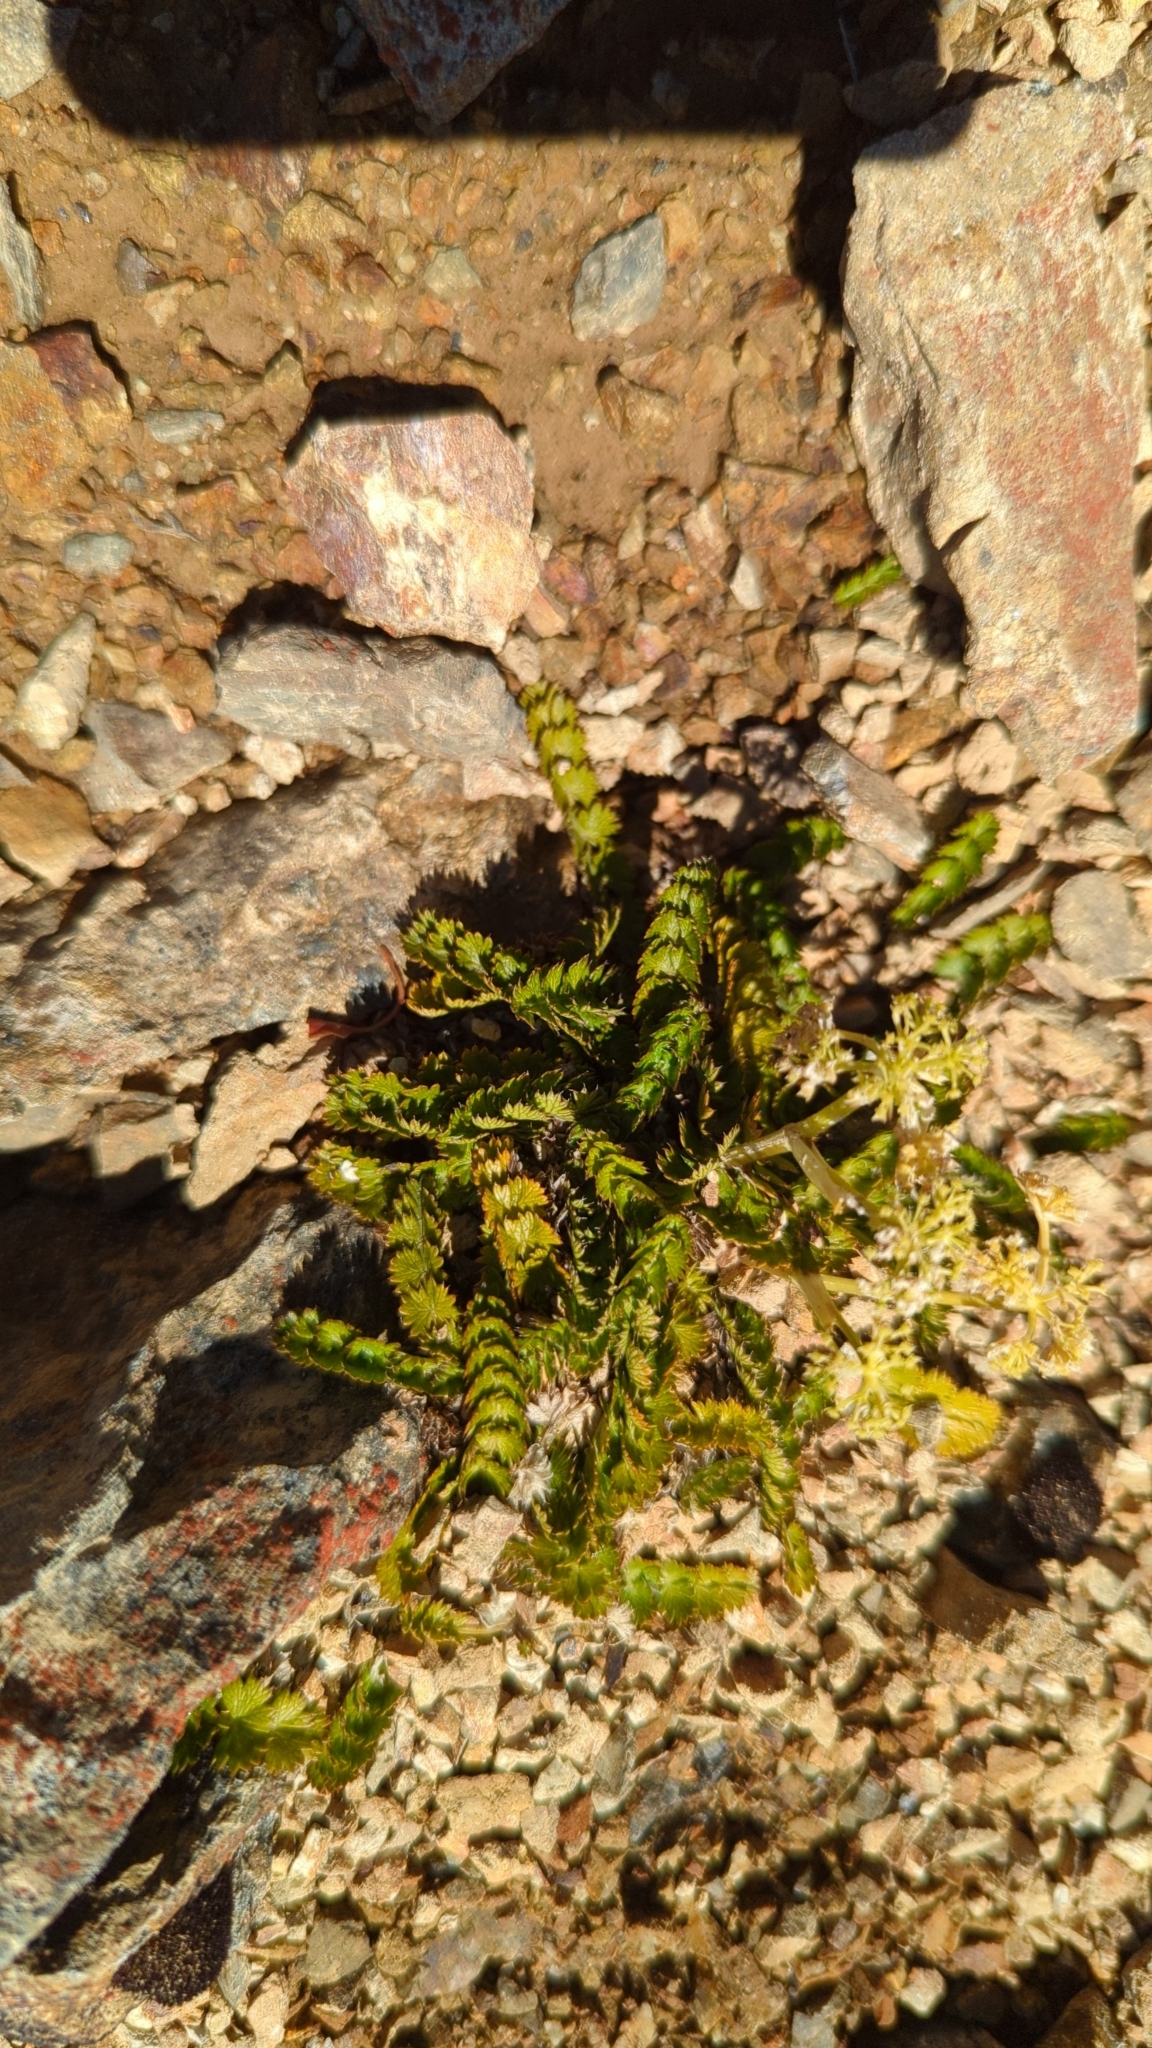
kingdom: Plantae
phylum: Tracheophyta
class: Magnoliopsida
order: Apiales
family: Apiaceae
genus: Anisotome
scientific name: Anisotome aromatica
